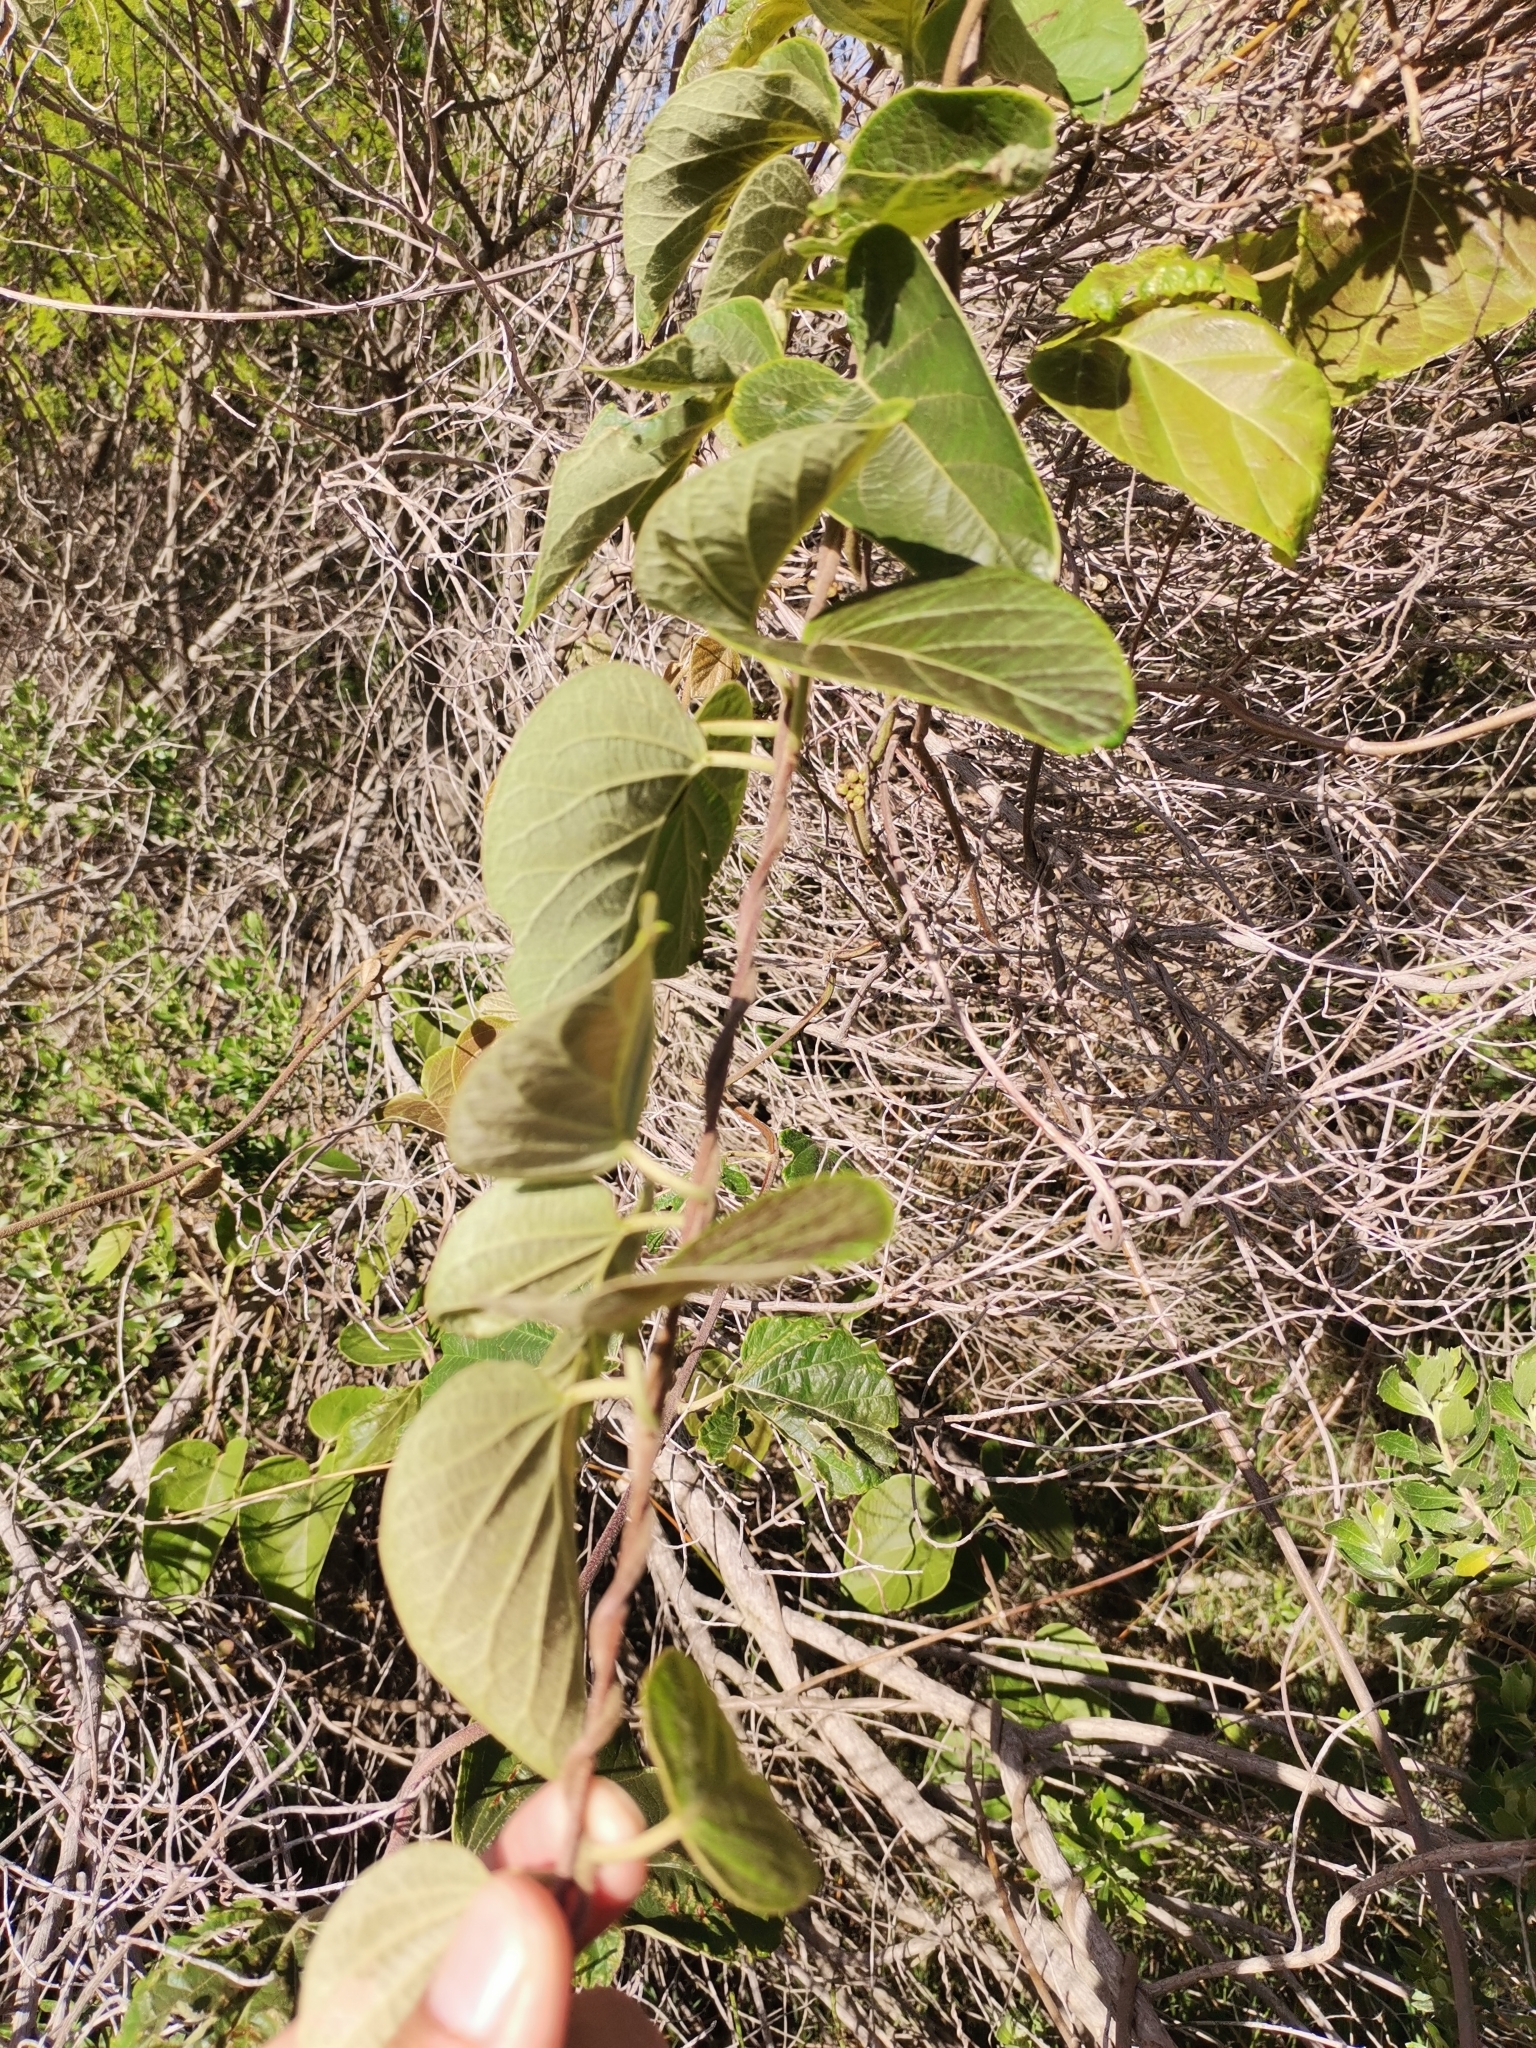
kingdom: Plantae
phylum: Tracheophyta
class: Magnoliopsida
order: Malpighiales
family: Malpighiaceae
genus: Stigmaphyllon
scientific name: Stigmaphyllon bonariense
